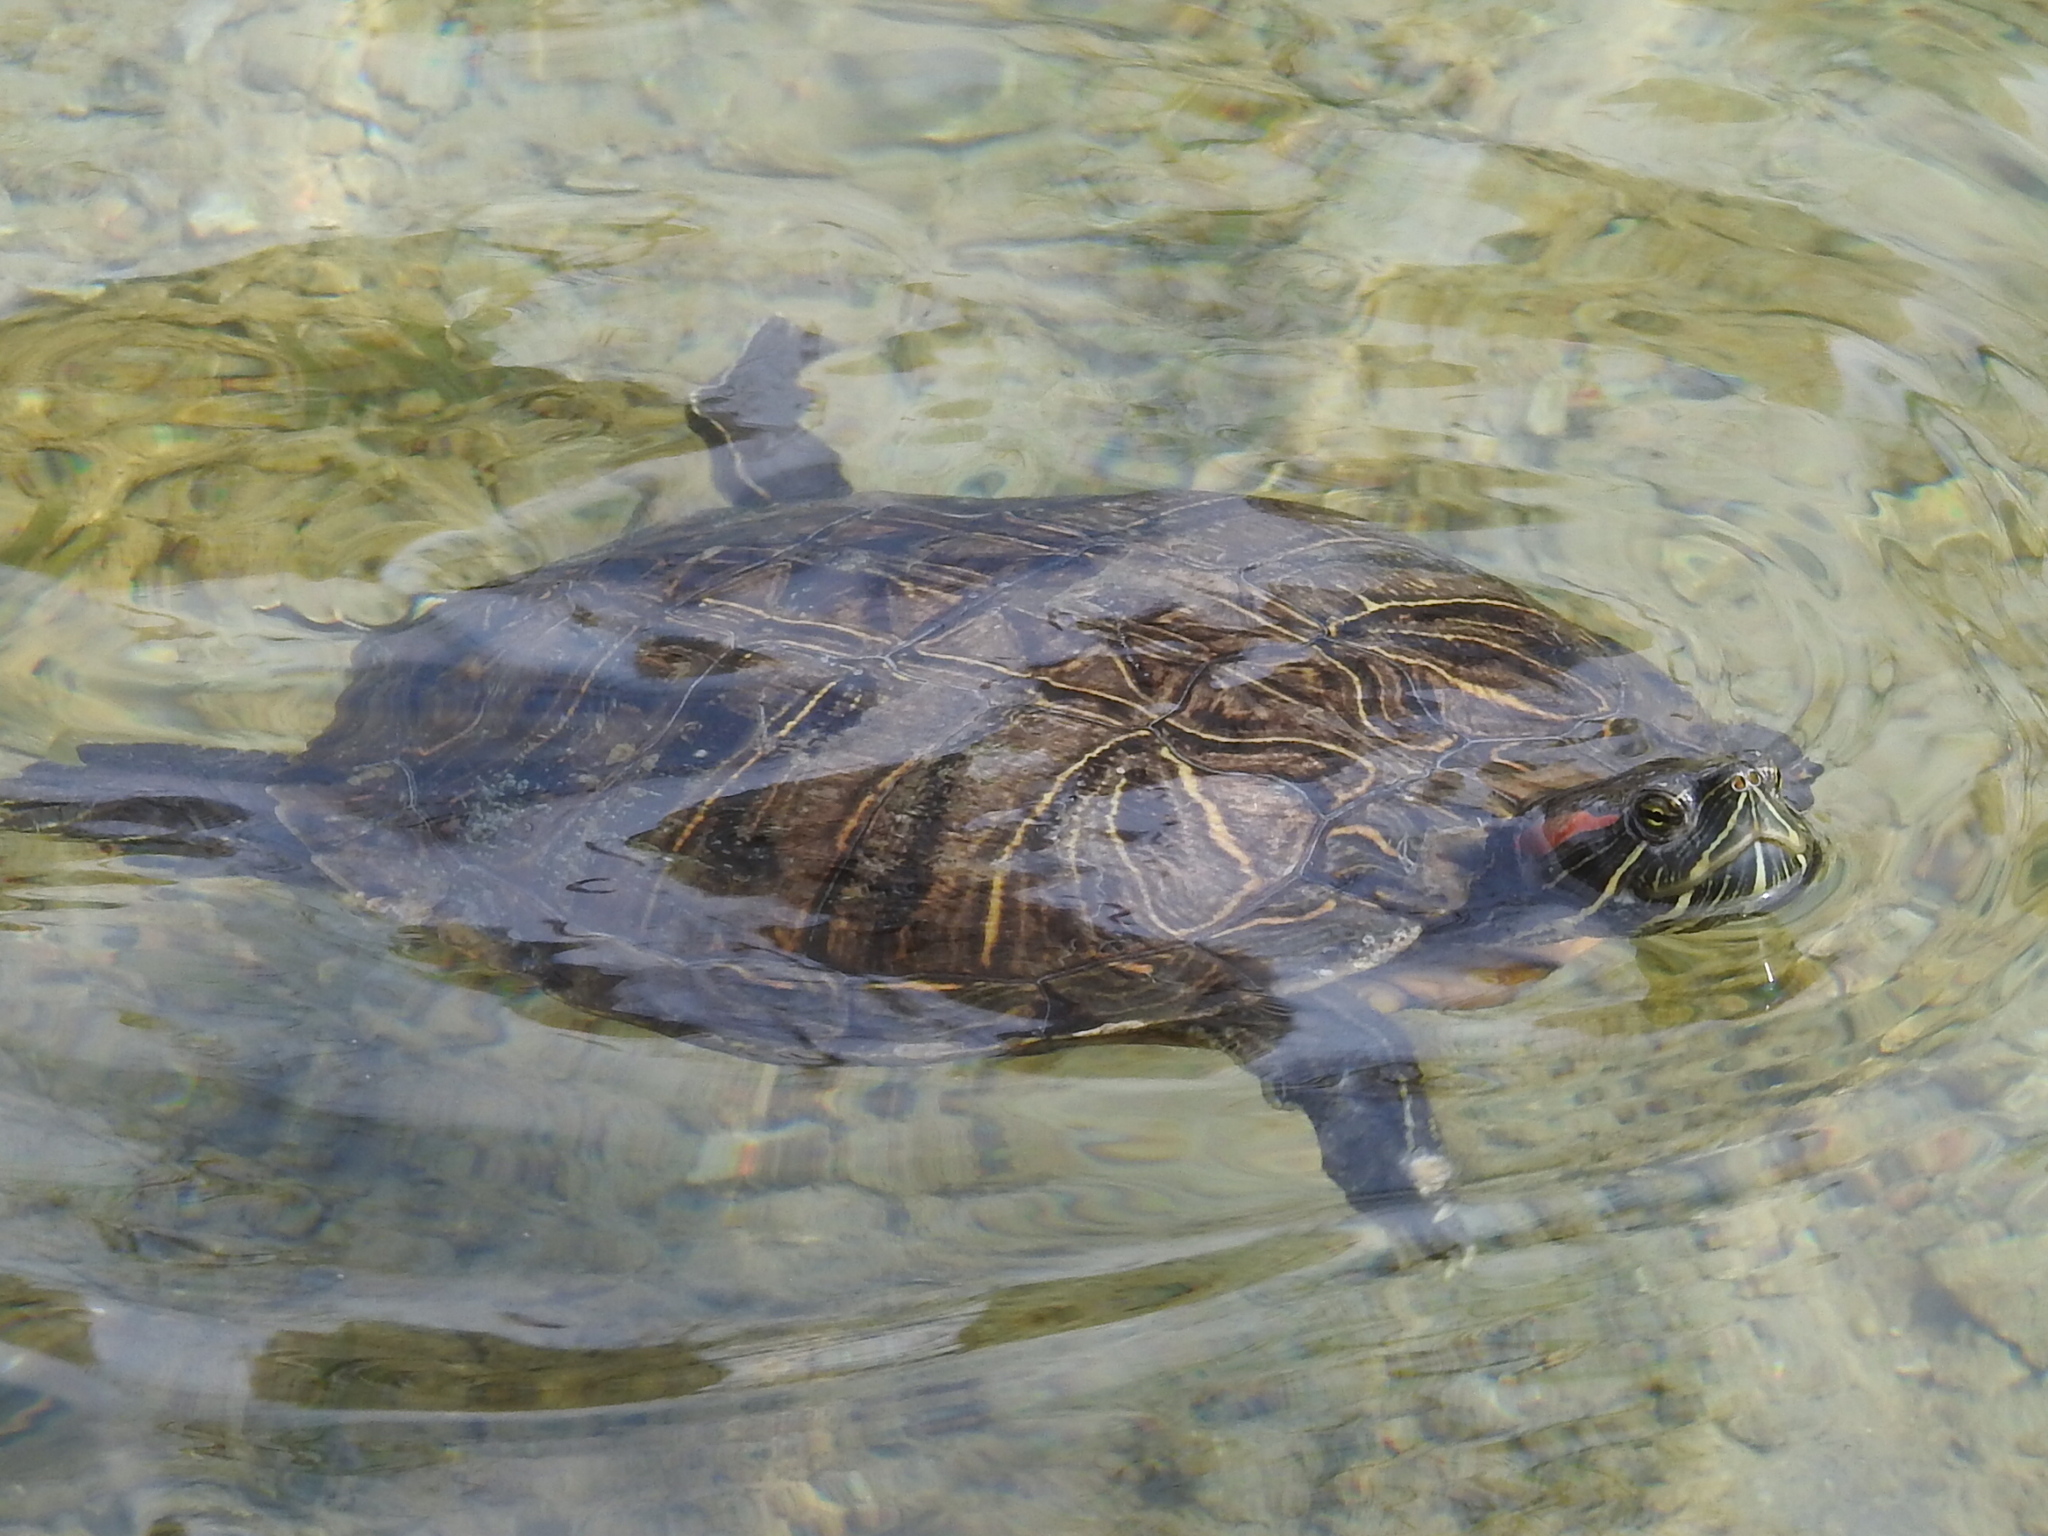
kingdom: Animalia
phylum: Chordata
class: Testudines
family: Emydidae
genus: Trachemys
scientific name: Trachemys scripta
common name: Slider
